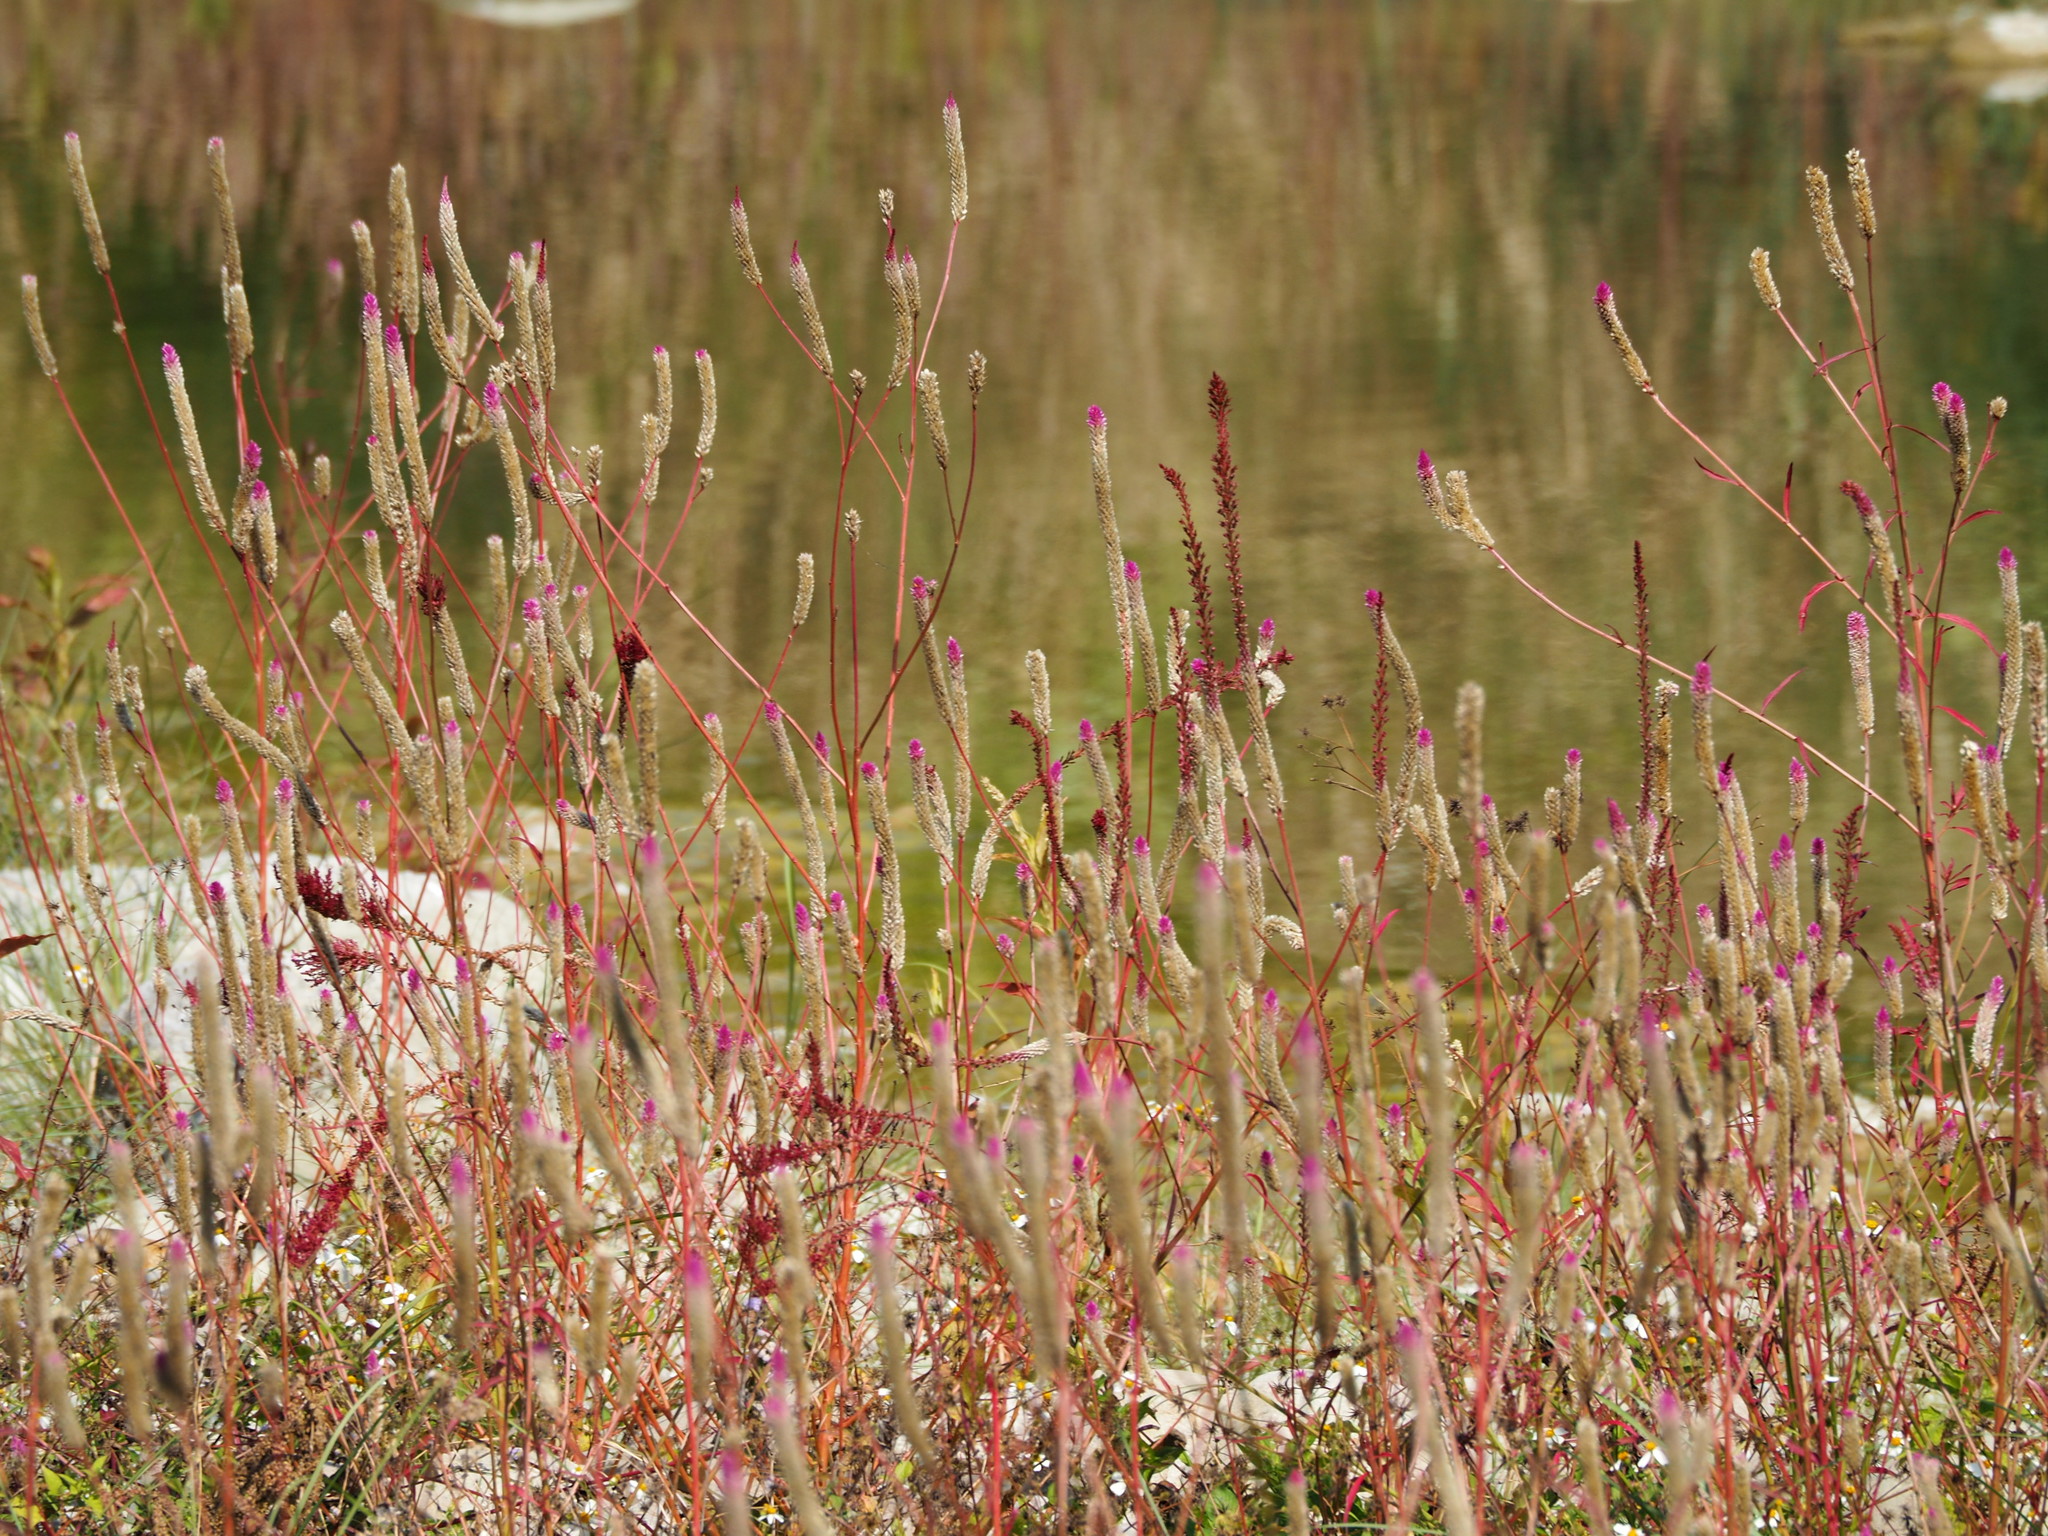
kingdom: Plantae
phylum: Tracheophyta
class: Magnoliopsida
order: Caryophyllales
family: Amaranthaceae
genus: Celosia
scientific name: Celosia argentea
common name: Feather cockscomb
